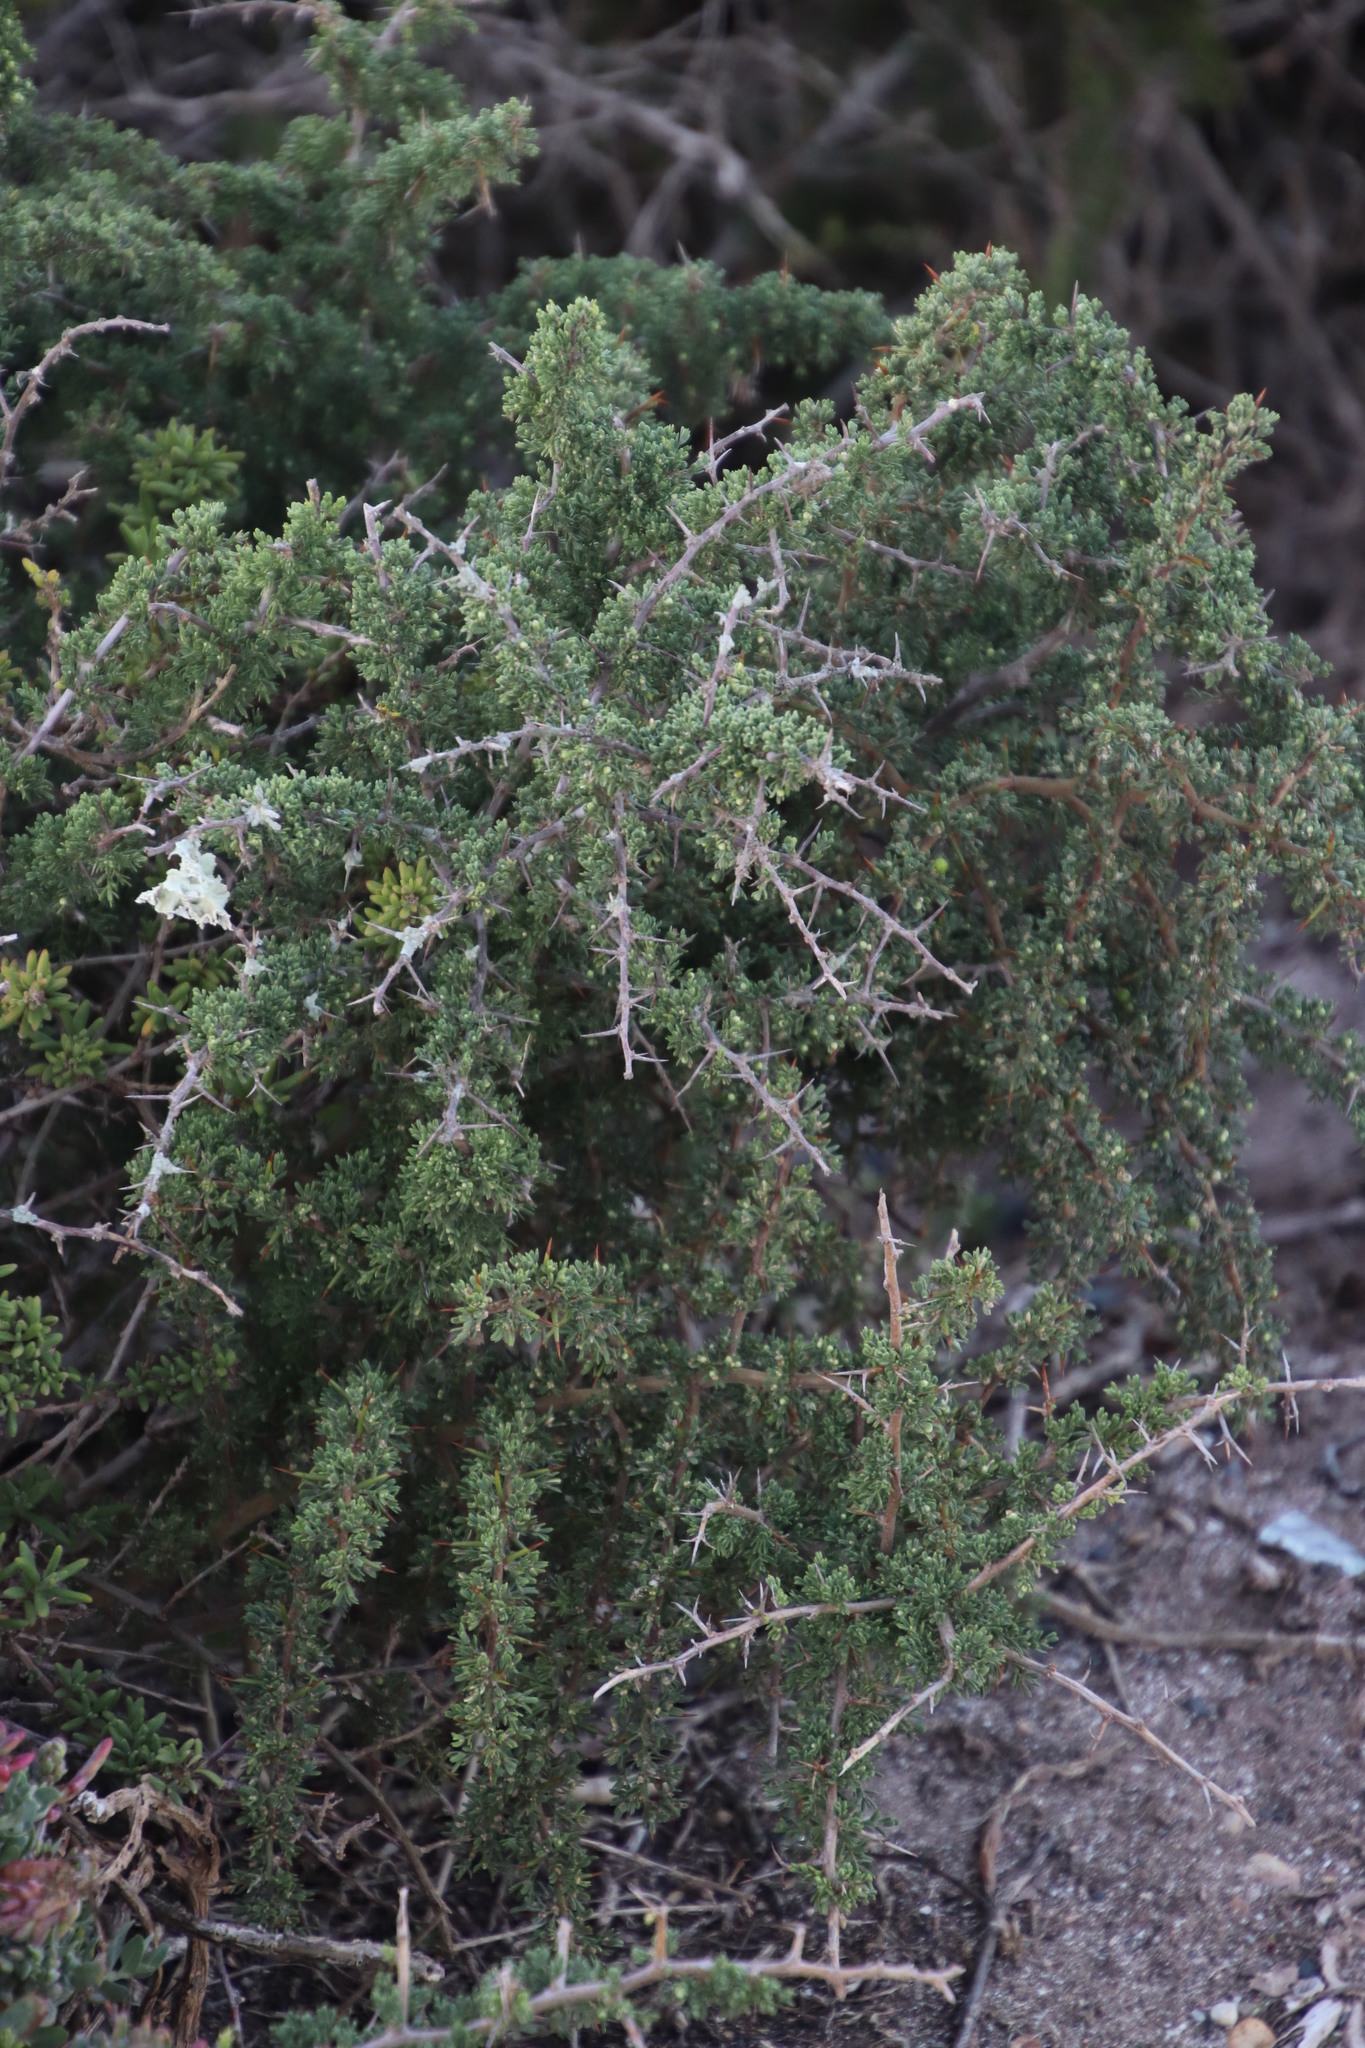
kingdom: Plantae
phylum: Tracheophyta
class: Liliopsida
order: Asparagales
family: Asparagaceae
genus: Asparagus
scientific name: Asparagus capensis
